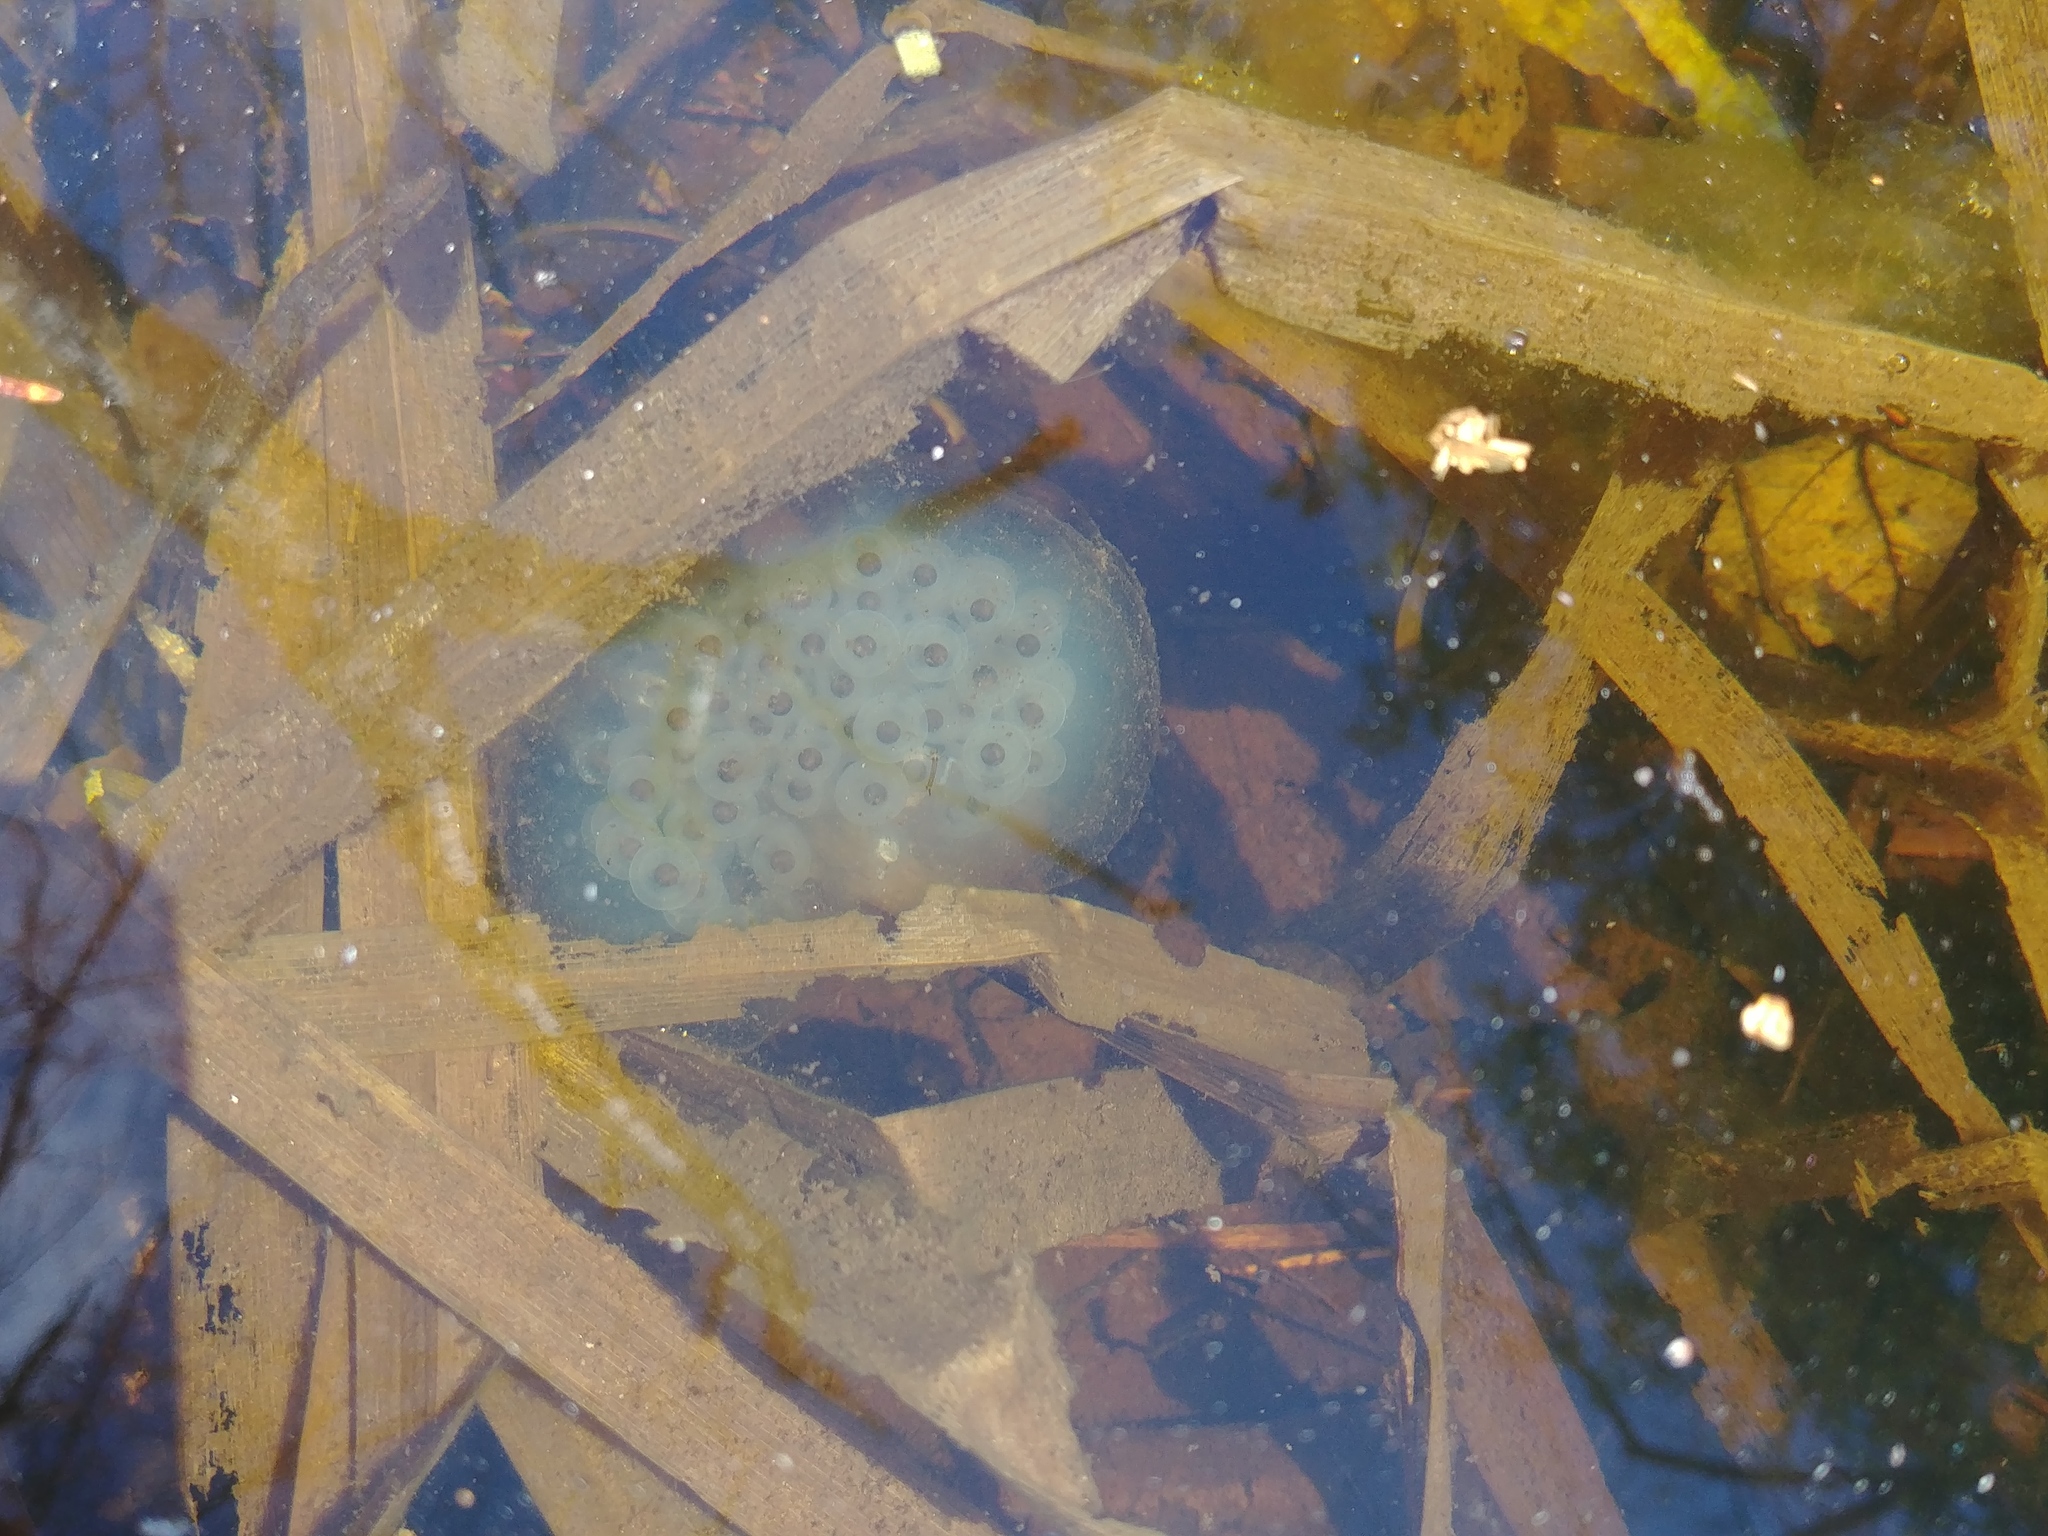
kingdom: Animalia
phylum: Chordata
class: Amphibia
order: Caudata
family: Ambystomatidae
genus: Ambystoma
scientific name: Ambystoma maculatum
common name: Spotted salamander
